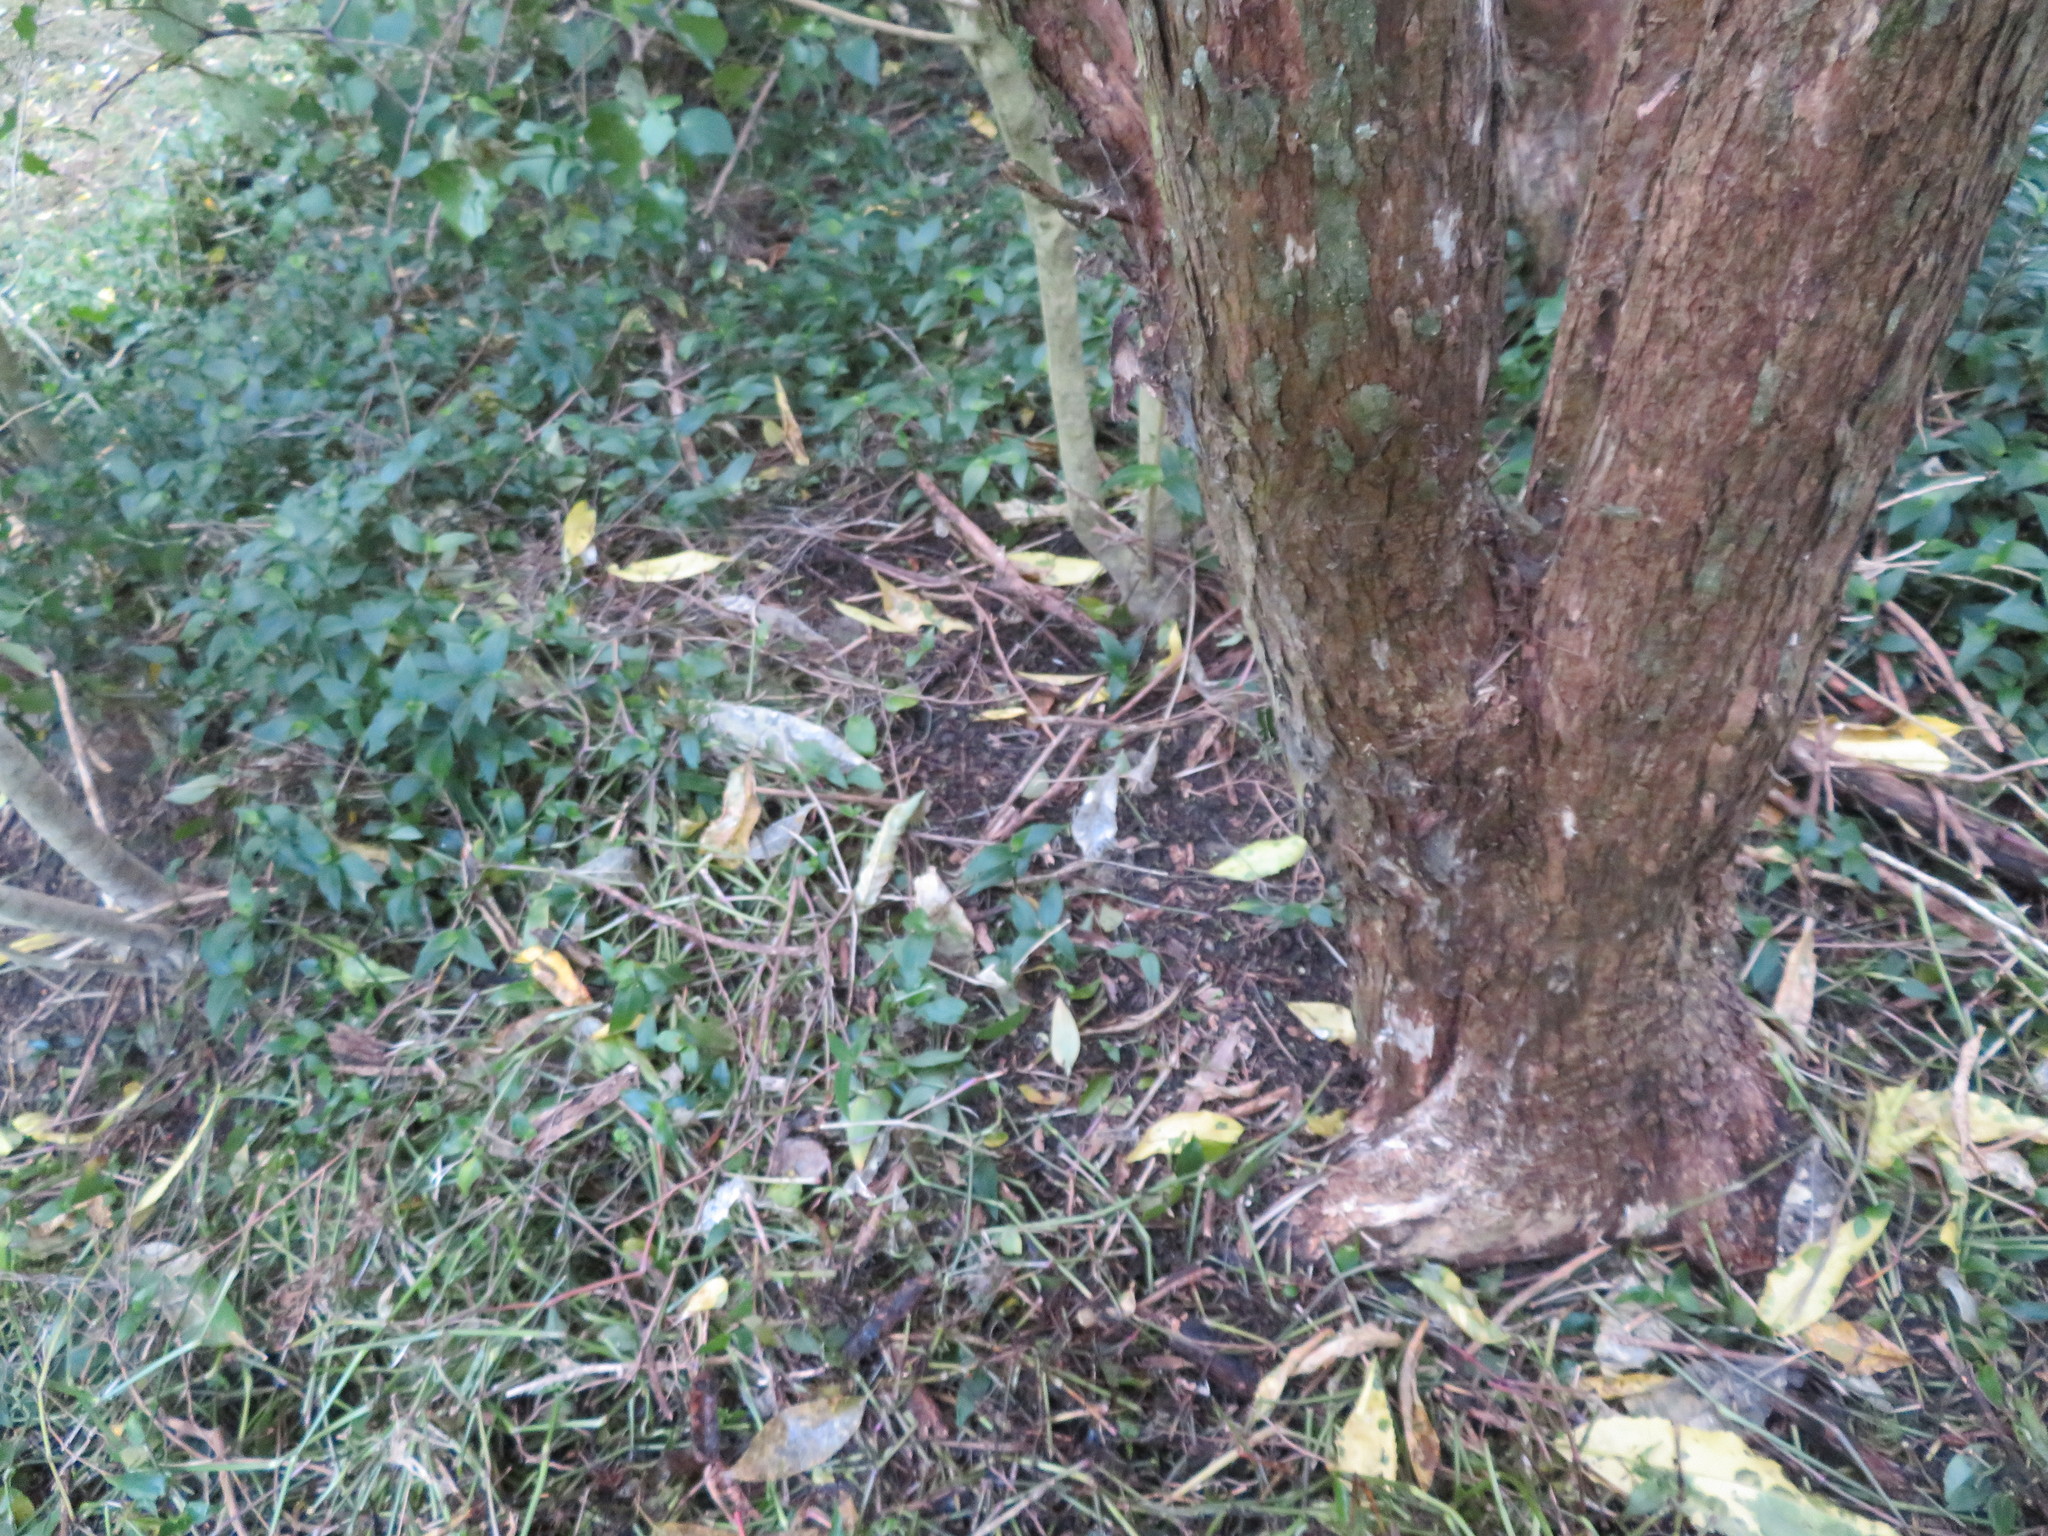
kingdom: Plantae
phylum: Tracheophyta
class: Liliopsida
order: Commelinales
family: Commelinaceae
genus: Tradescantia
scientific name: Tradescantia fluminensis
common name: Wandering-jew
